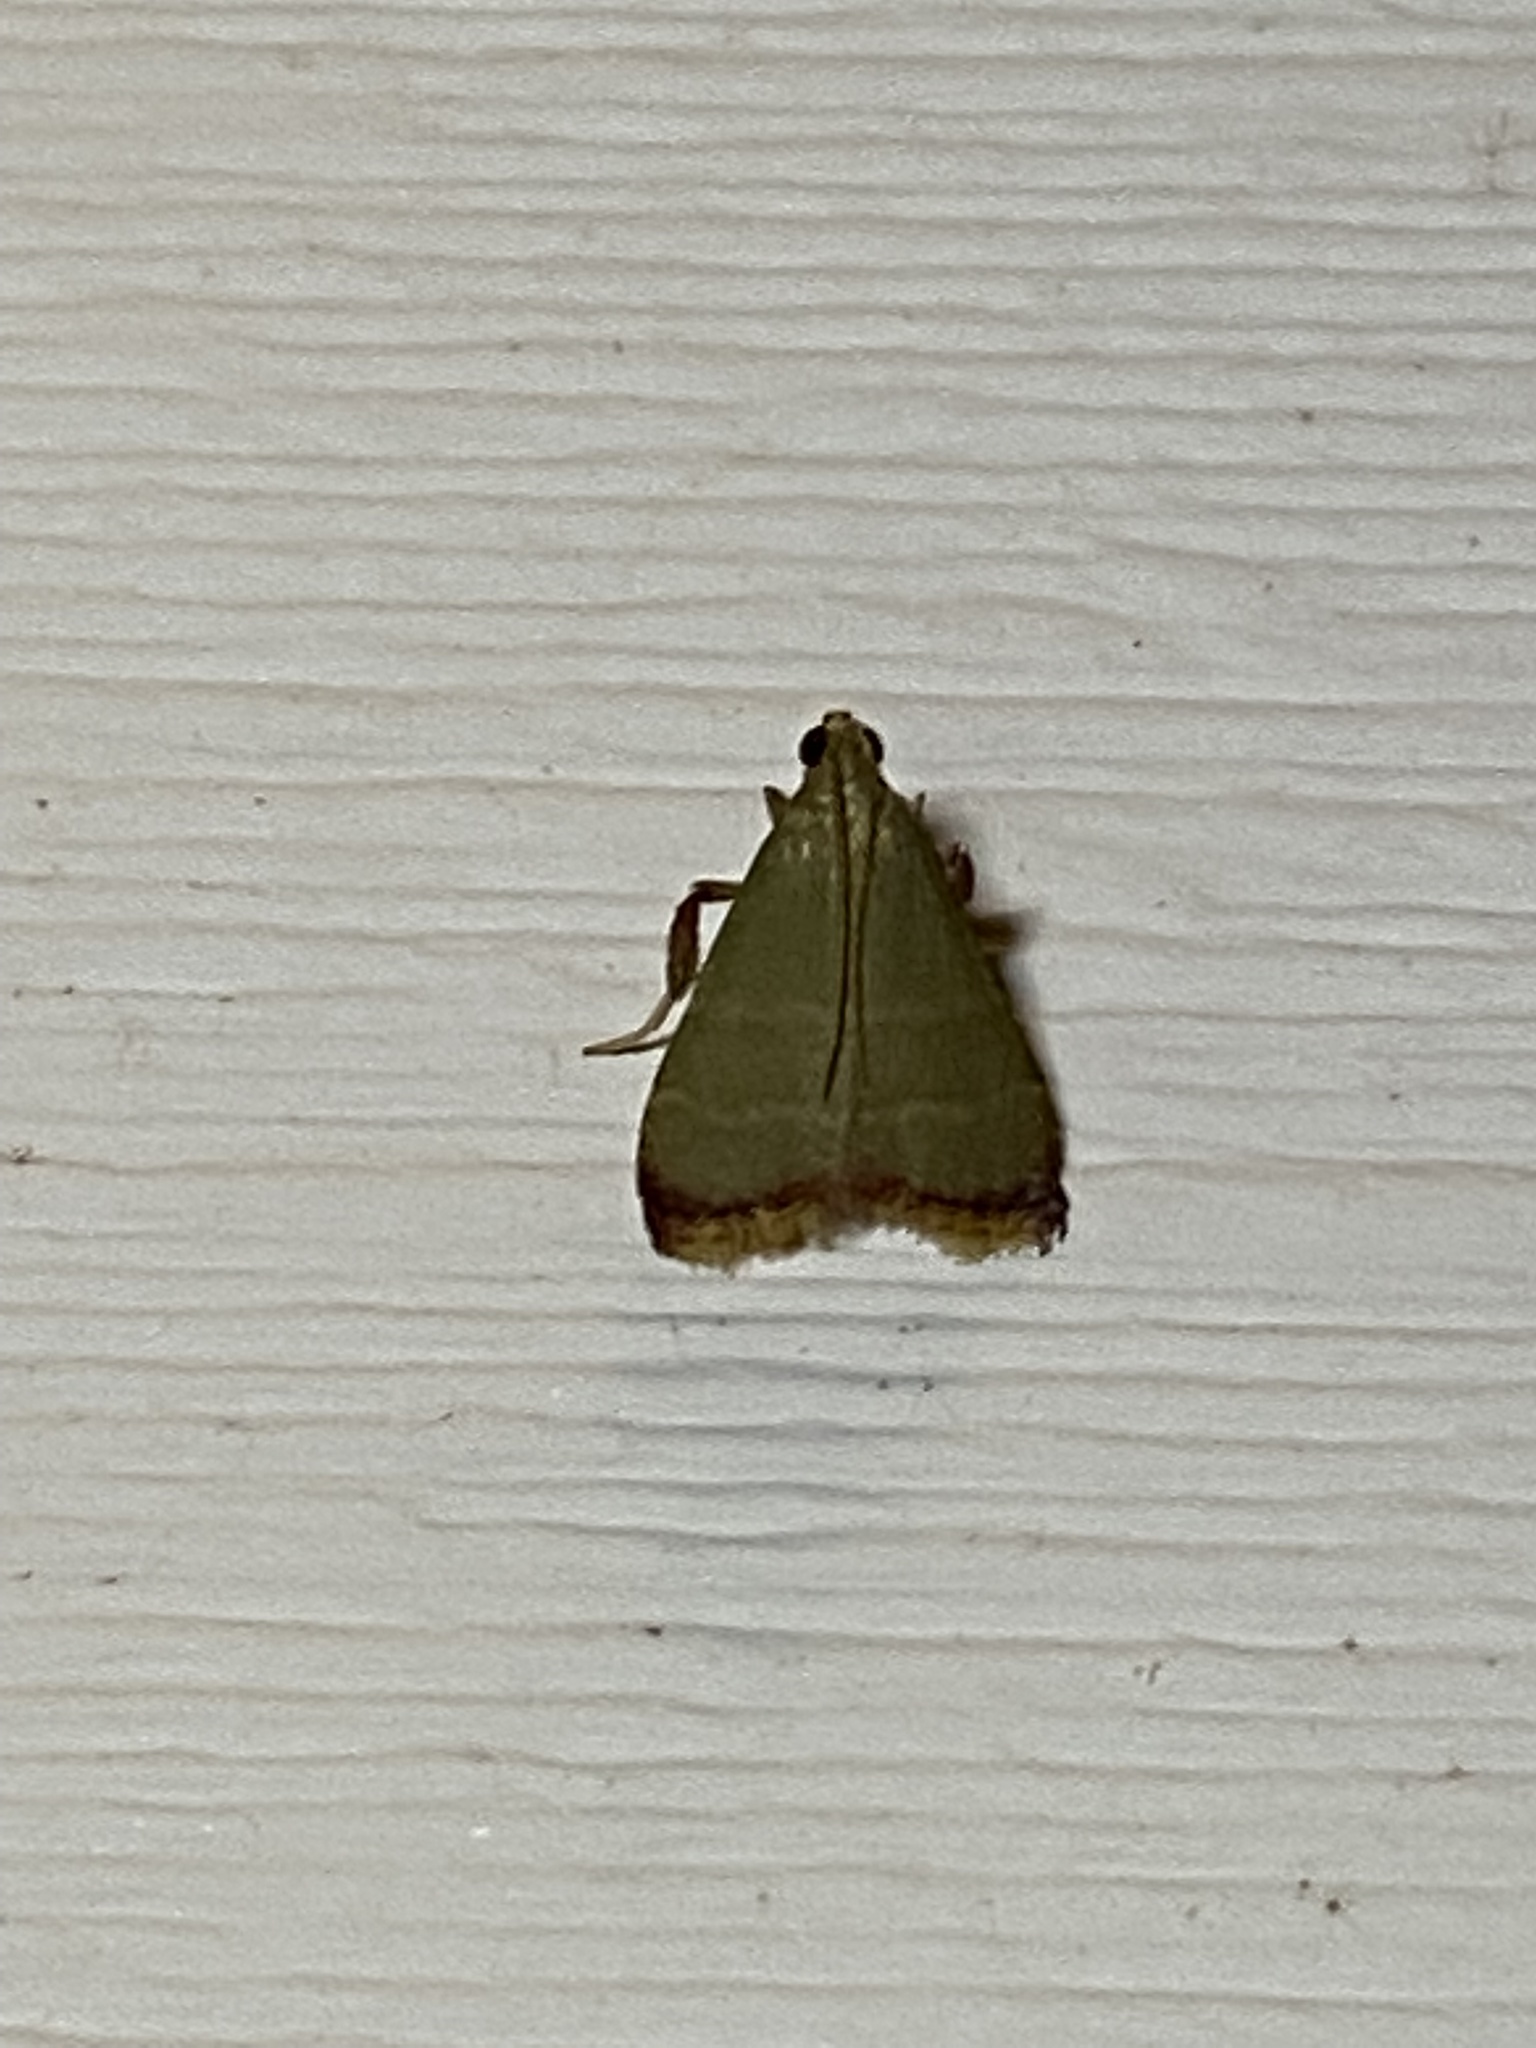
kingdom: Animalia
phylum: Arthropoda
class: Insecta
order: Lepidoptera
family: Pyralidae
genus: Arta
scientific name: Arta olivalis
